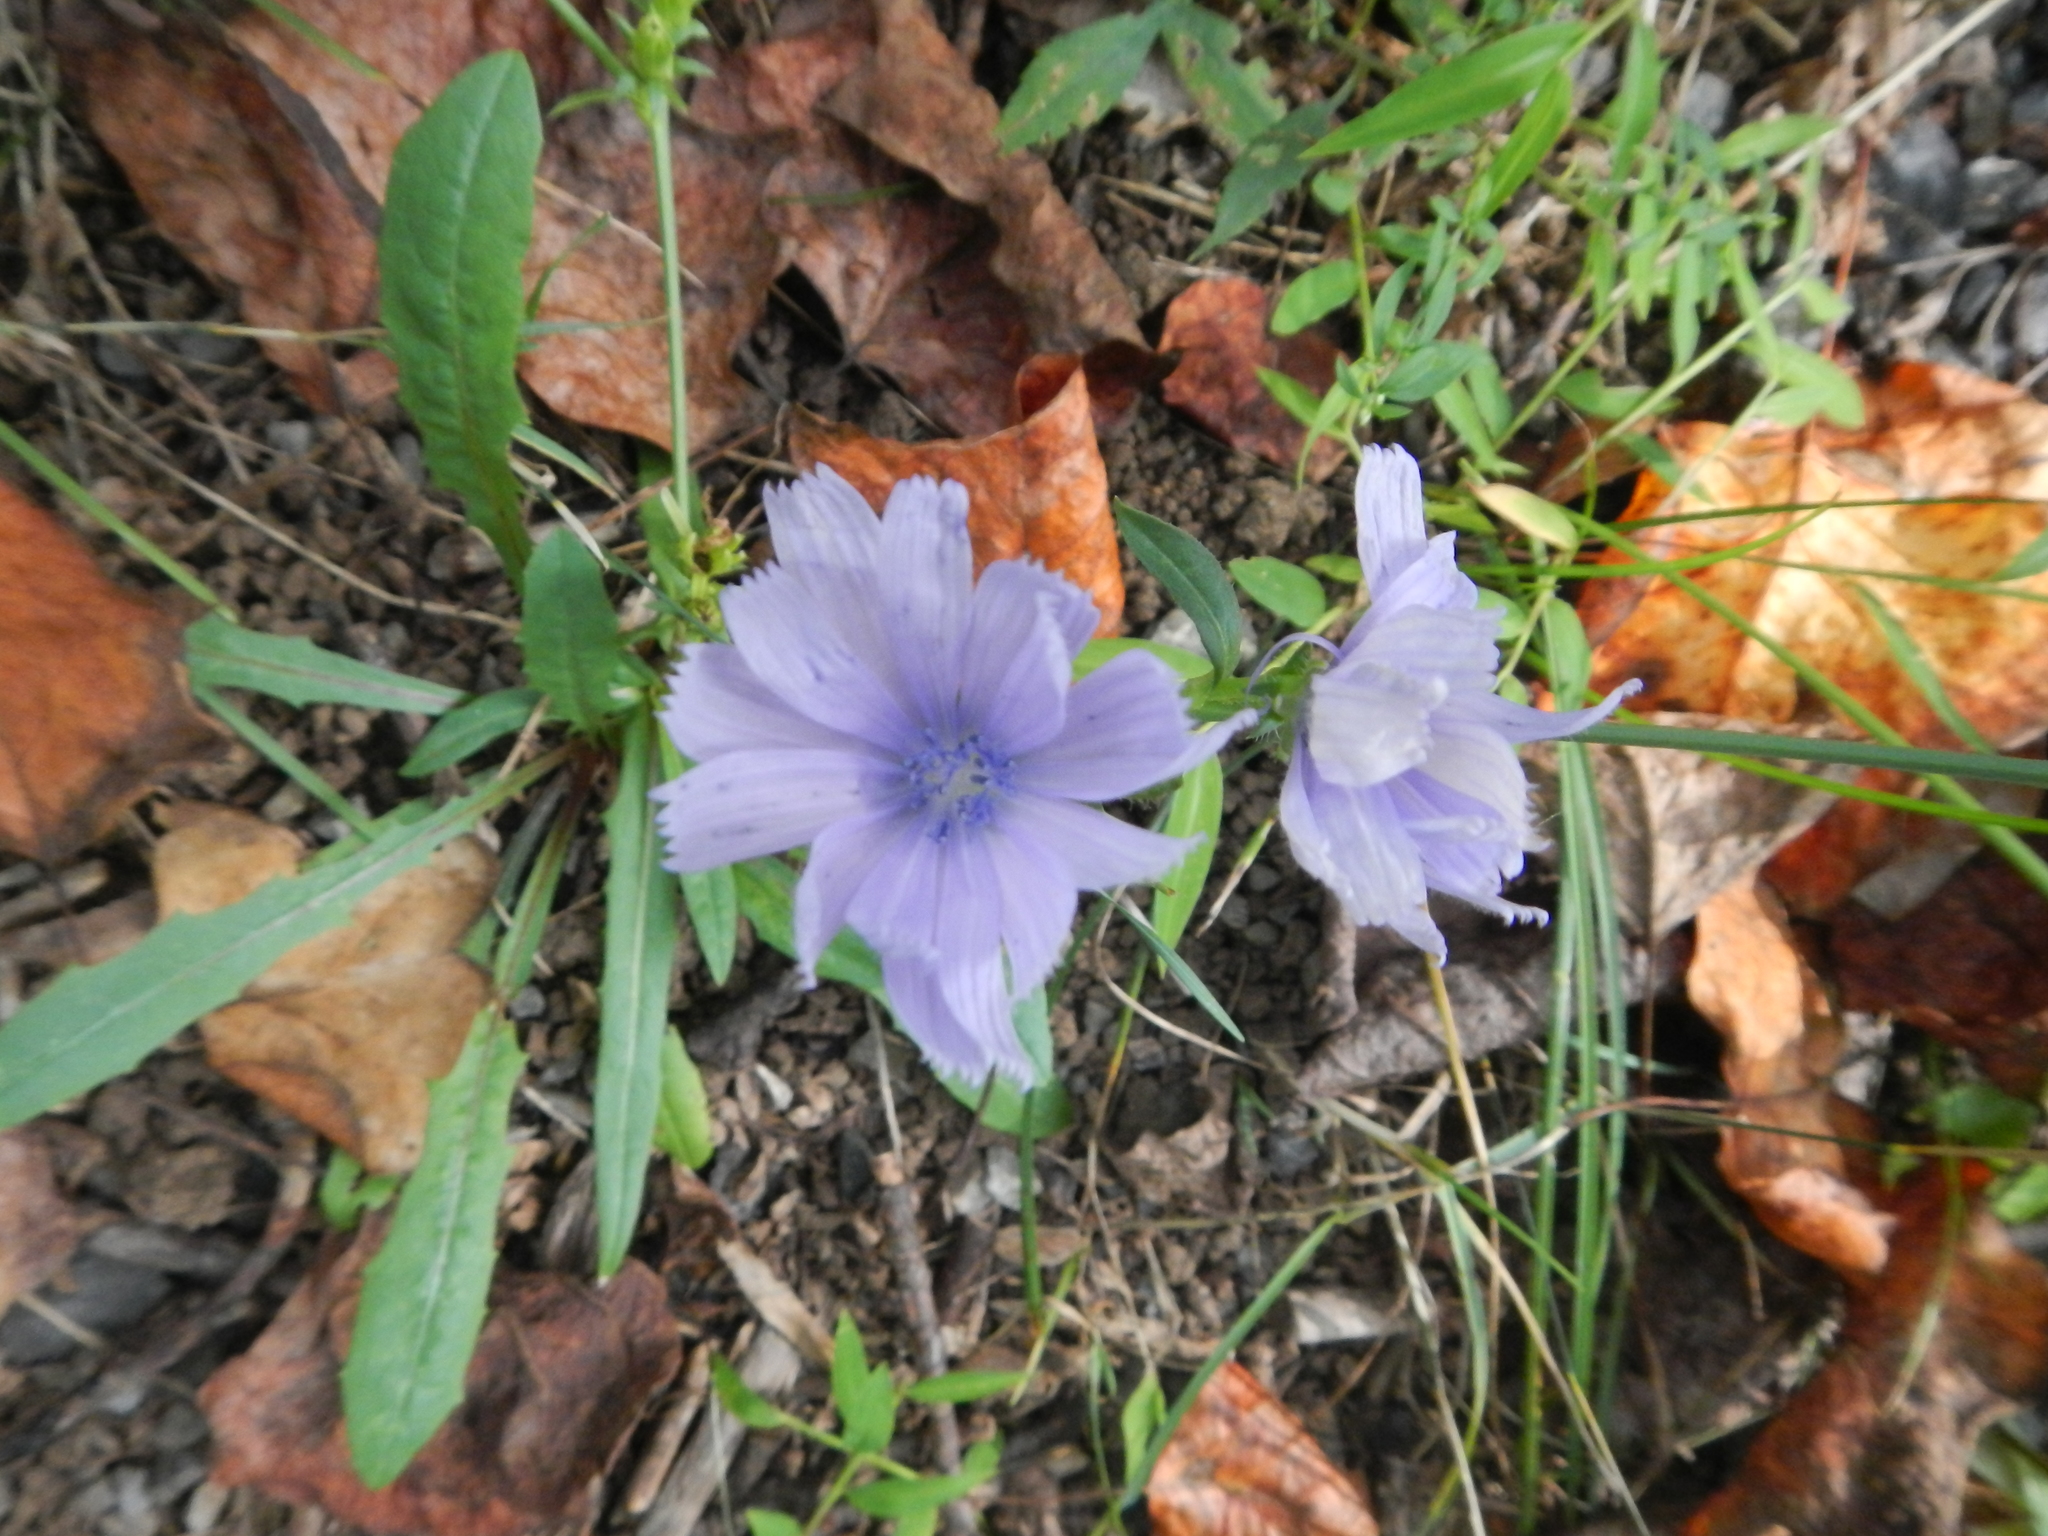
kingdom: Plantae
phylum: Tracheophyta
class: Magnoliopsida
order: Asterales
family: Asteraceae
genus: Cichorium
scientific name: Cichorium intybus
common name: Chicory
